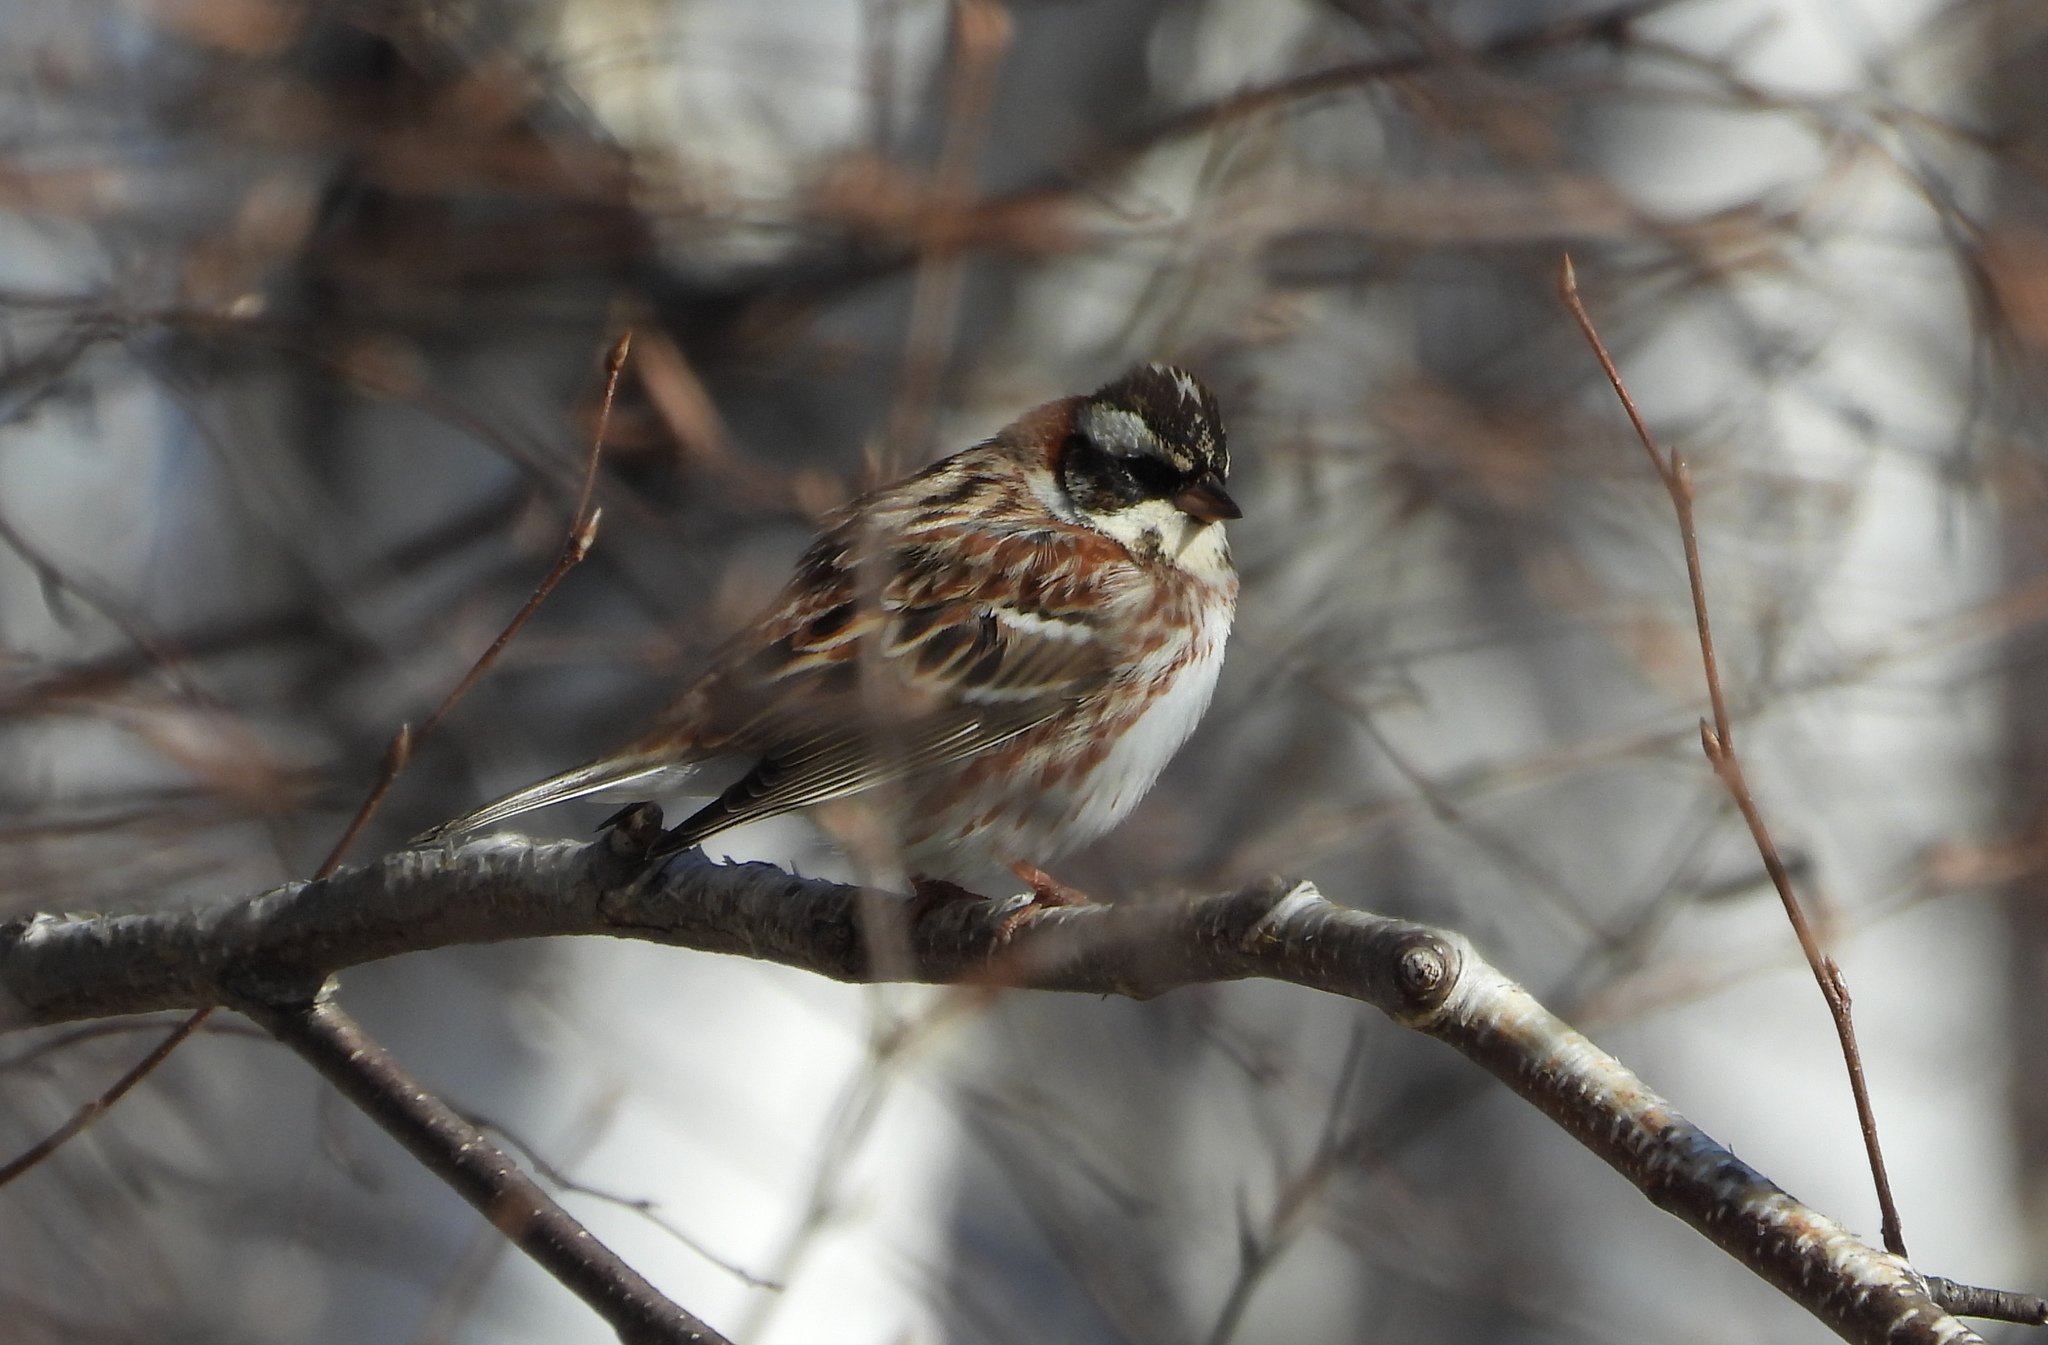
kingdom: Animalia
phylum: Chordata
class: Aves
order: Passeriformes
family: Emberizidae
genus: Emberiza
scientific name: Emberiza rustica
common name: Rustic bunting
